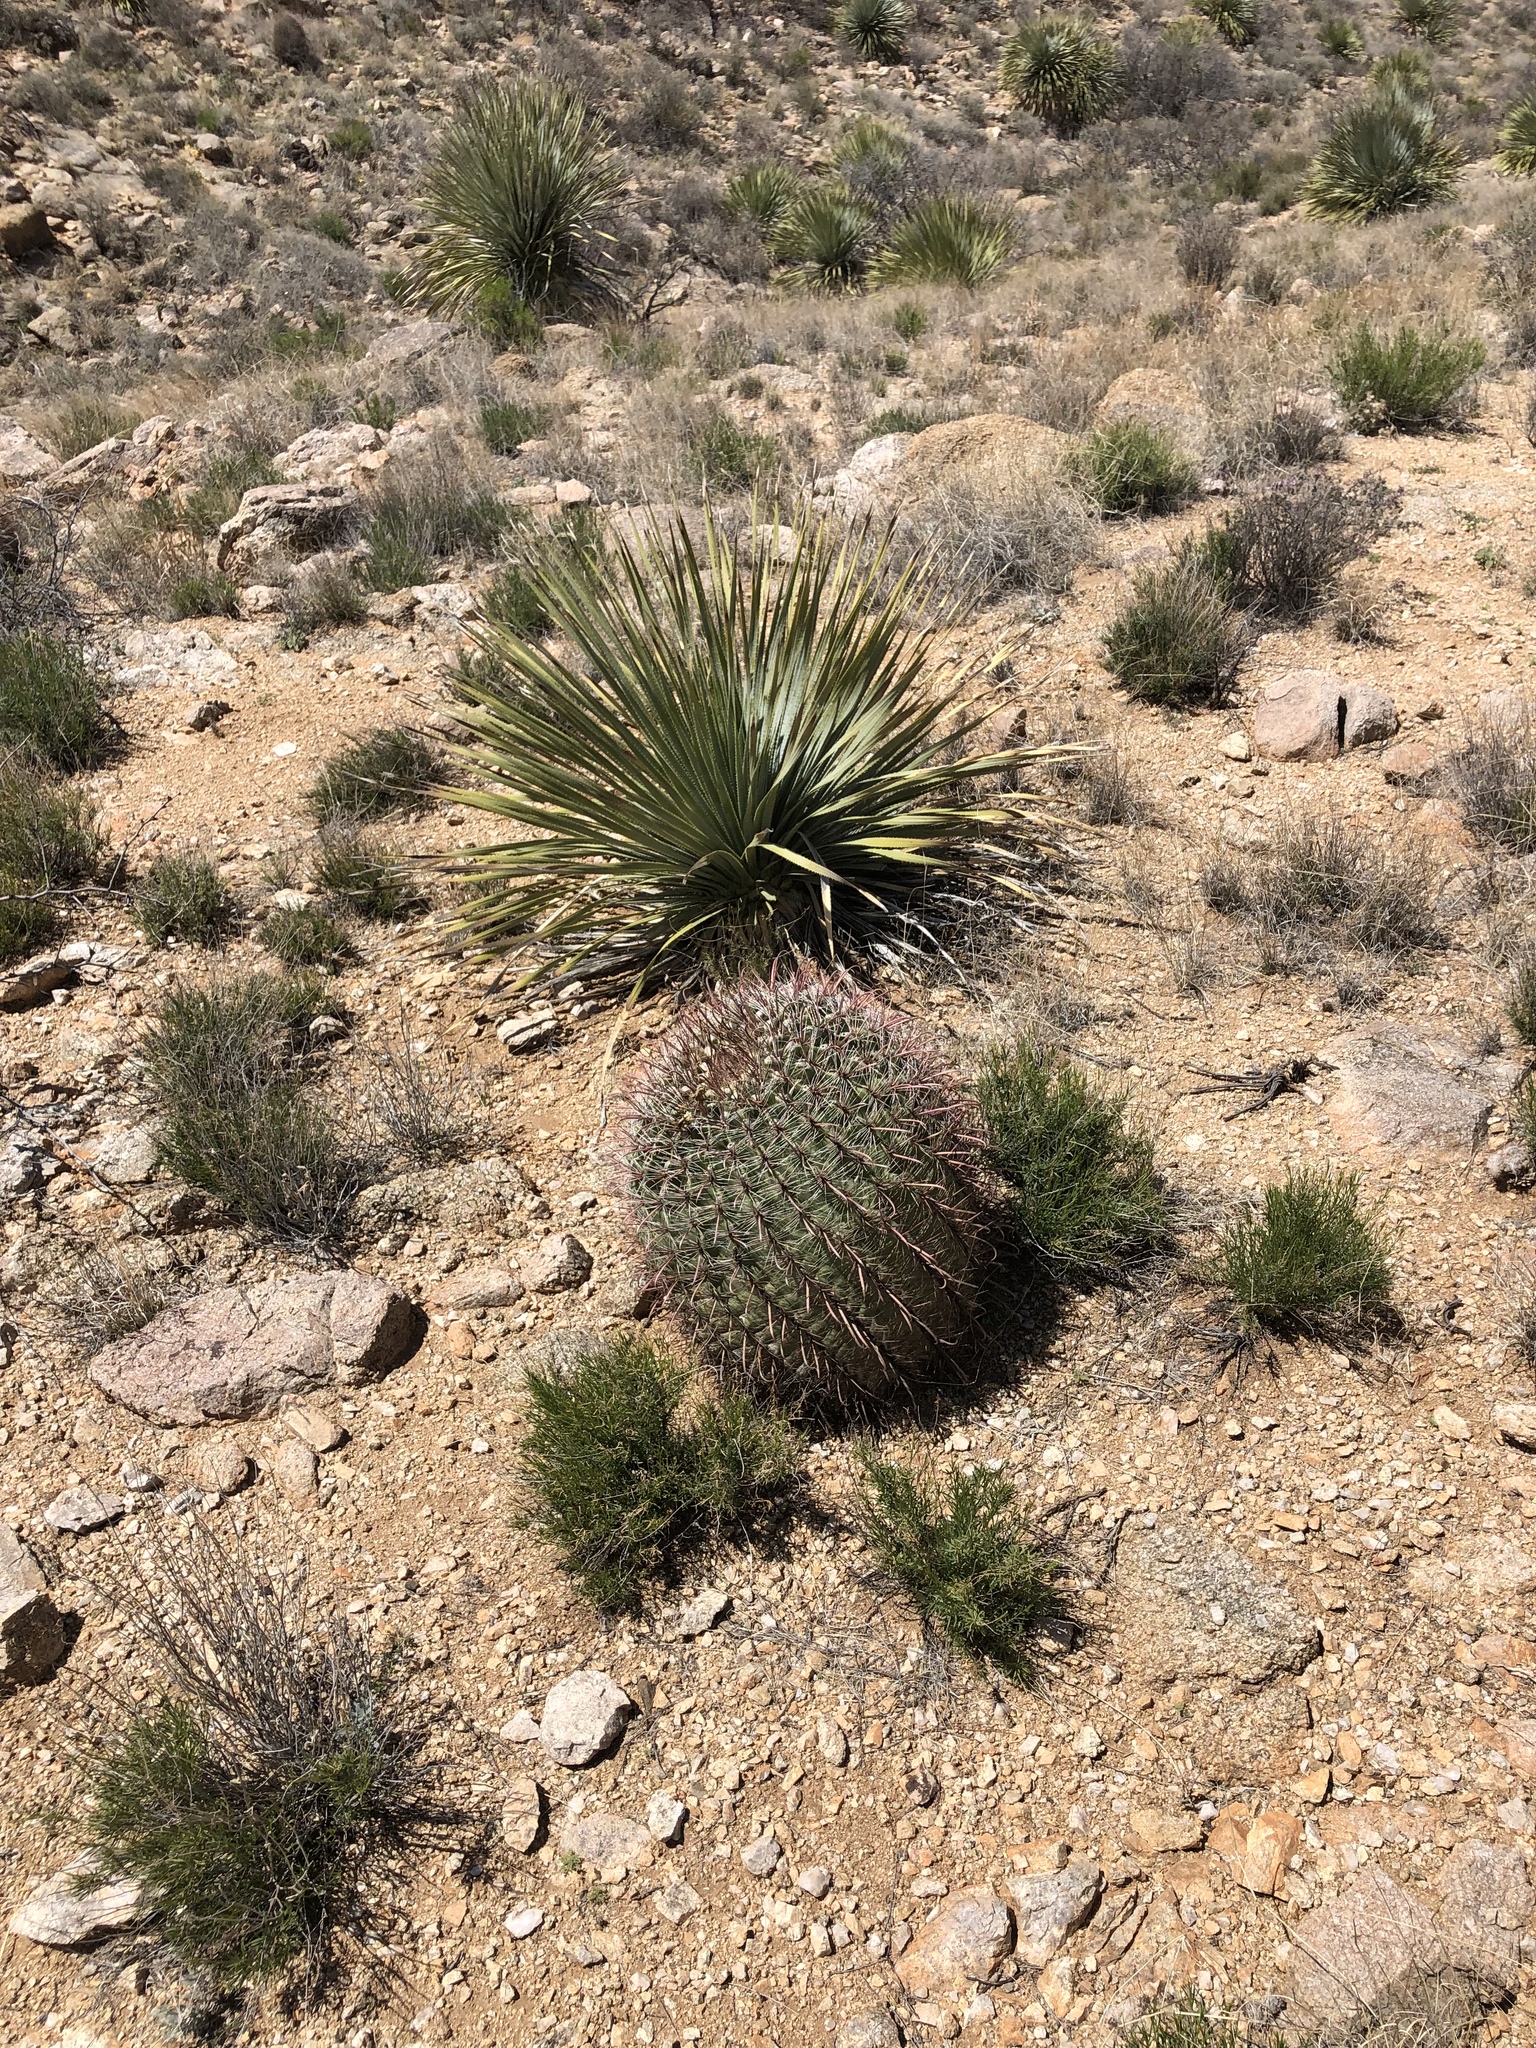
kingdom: Plantae
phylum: Tracheophyta
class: Magnoliopsida
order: Caryophyllales
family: Cactaceae
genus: Ferocactus
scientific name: Ferocactus wislizeni
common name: Candy barrel cactus
